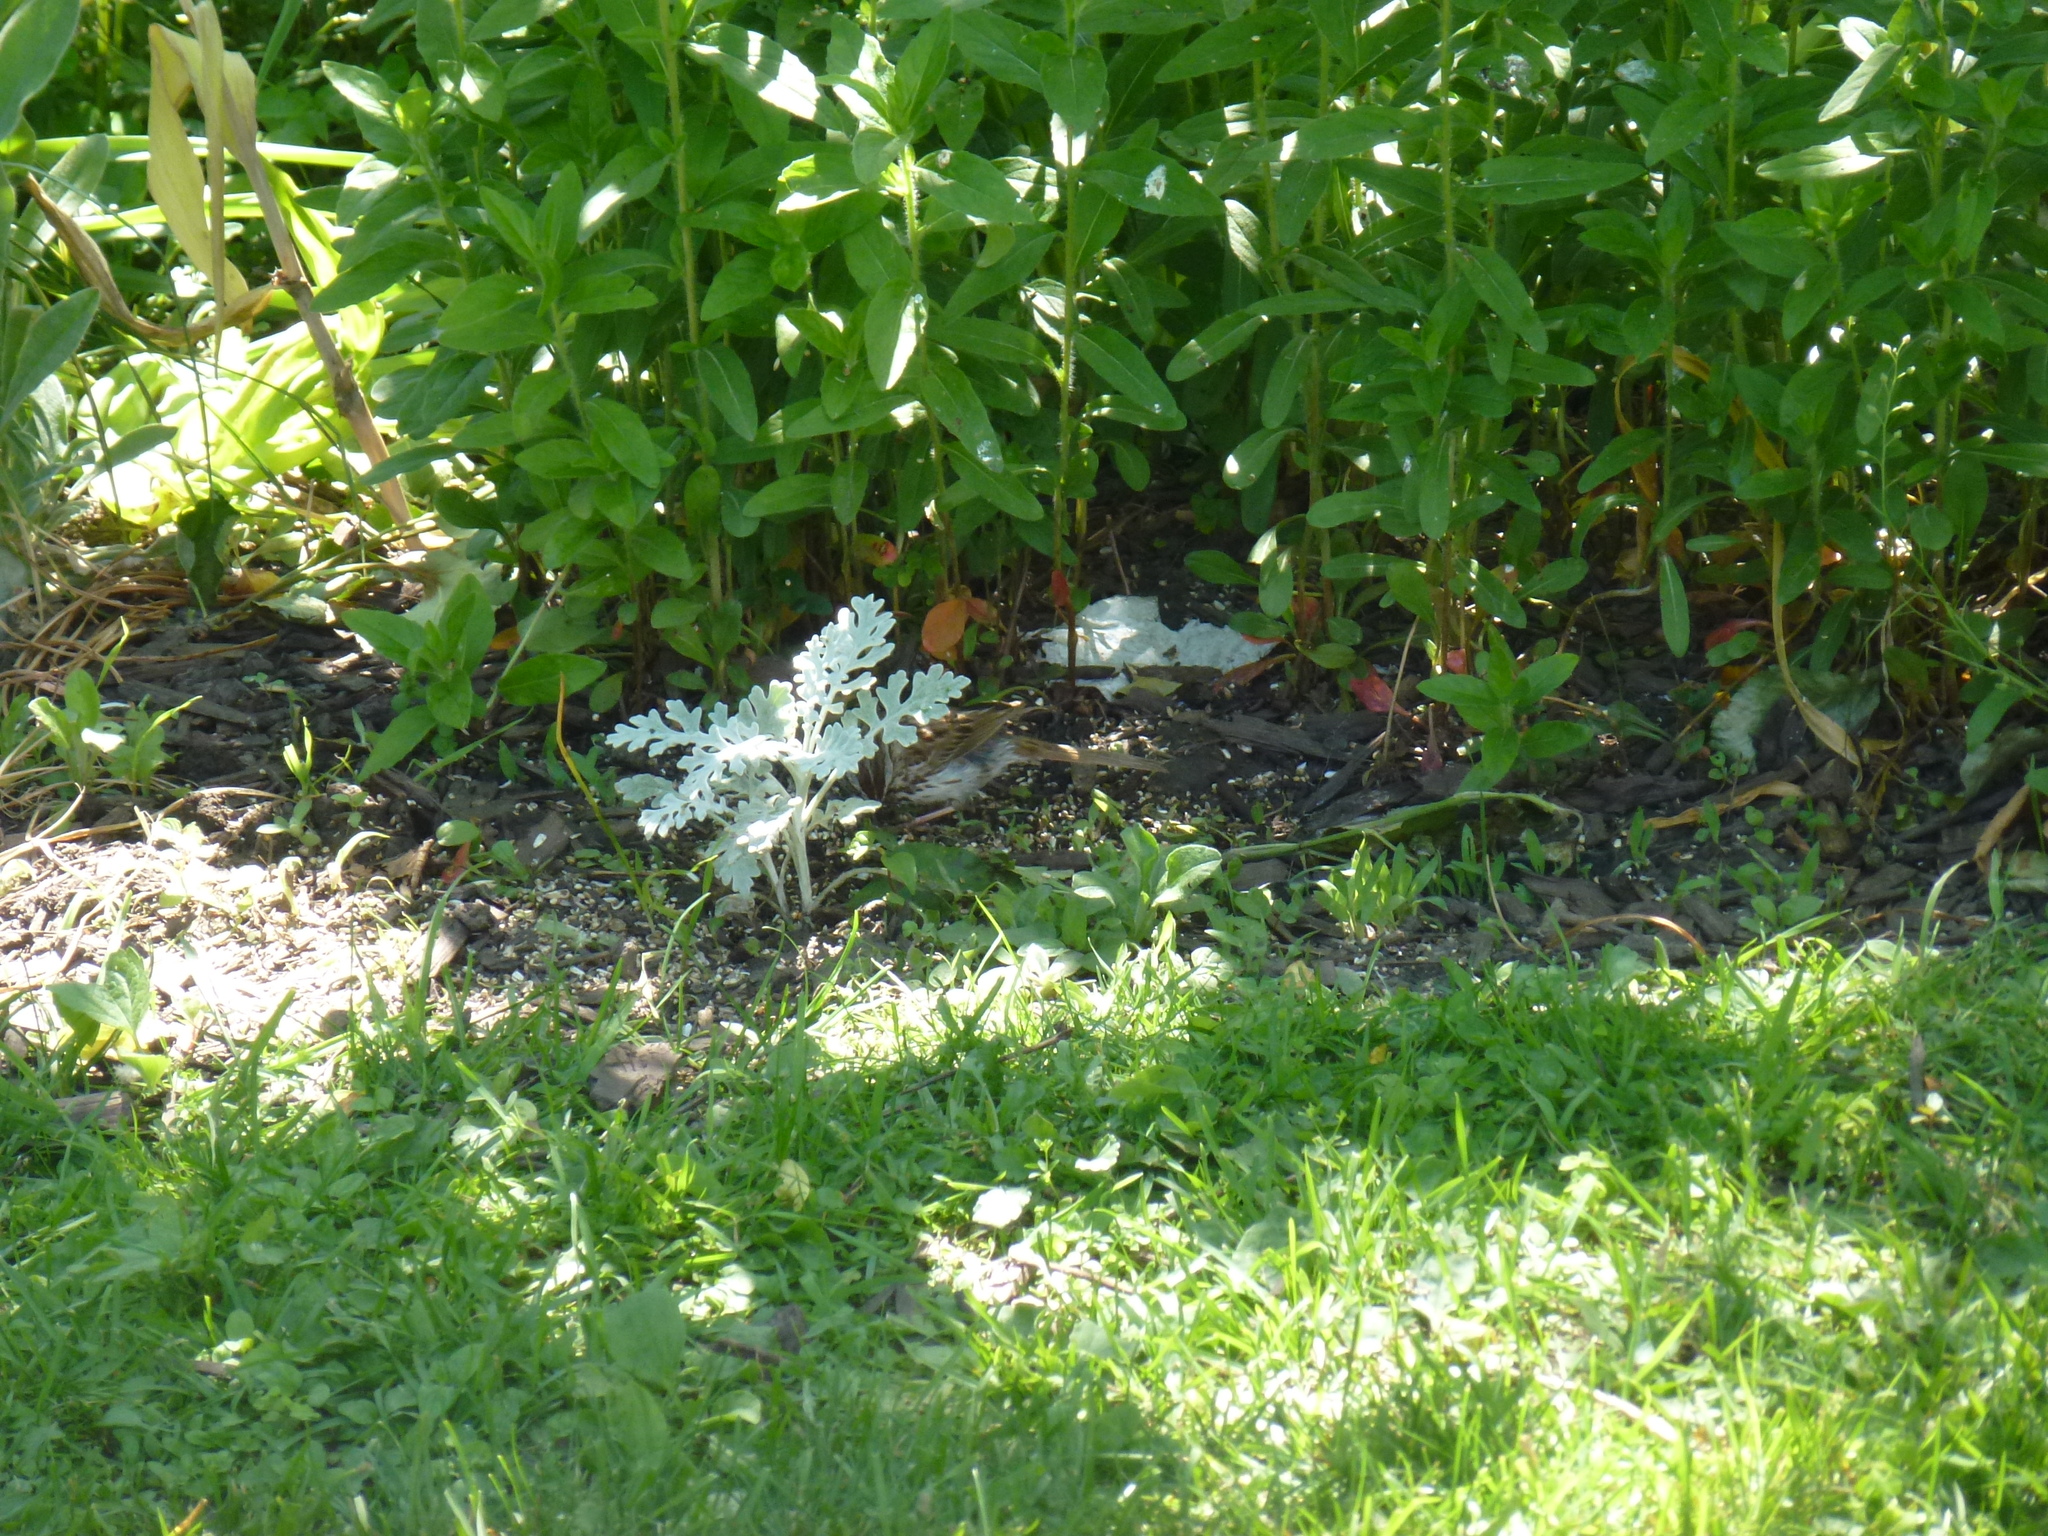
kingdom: Animalia
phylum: Chordata
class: Aves
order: Passeriformes
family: Passerellidae
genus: Melospiza
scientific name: Melospiza melodia
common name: Song sparrow
